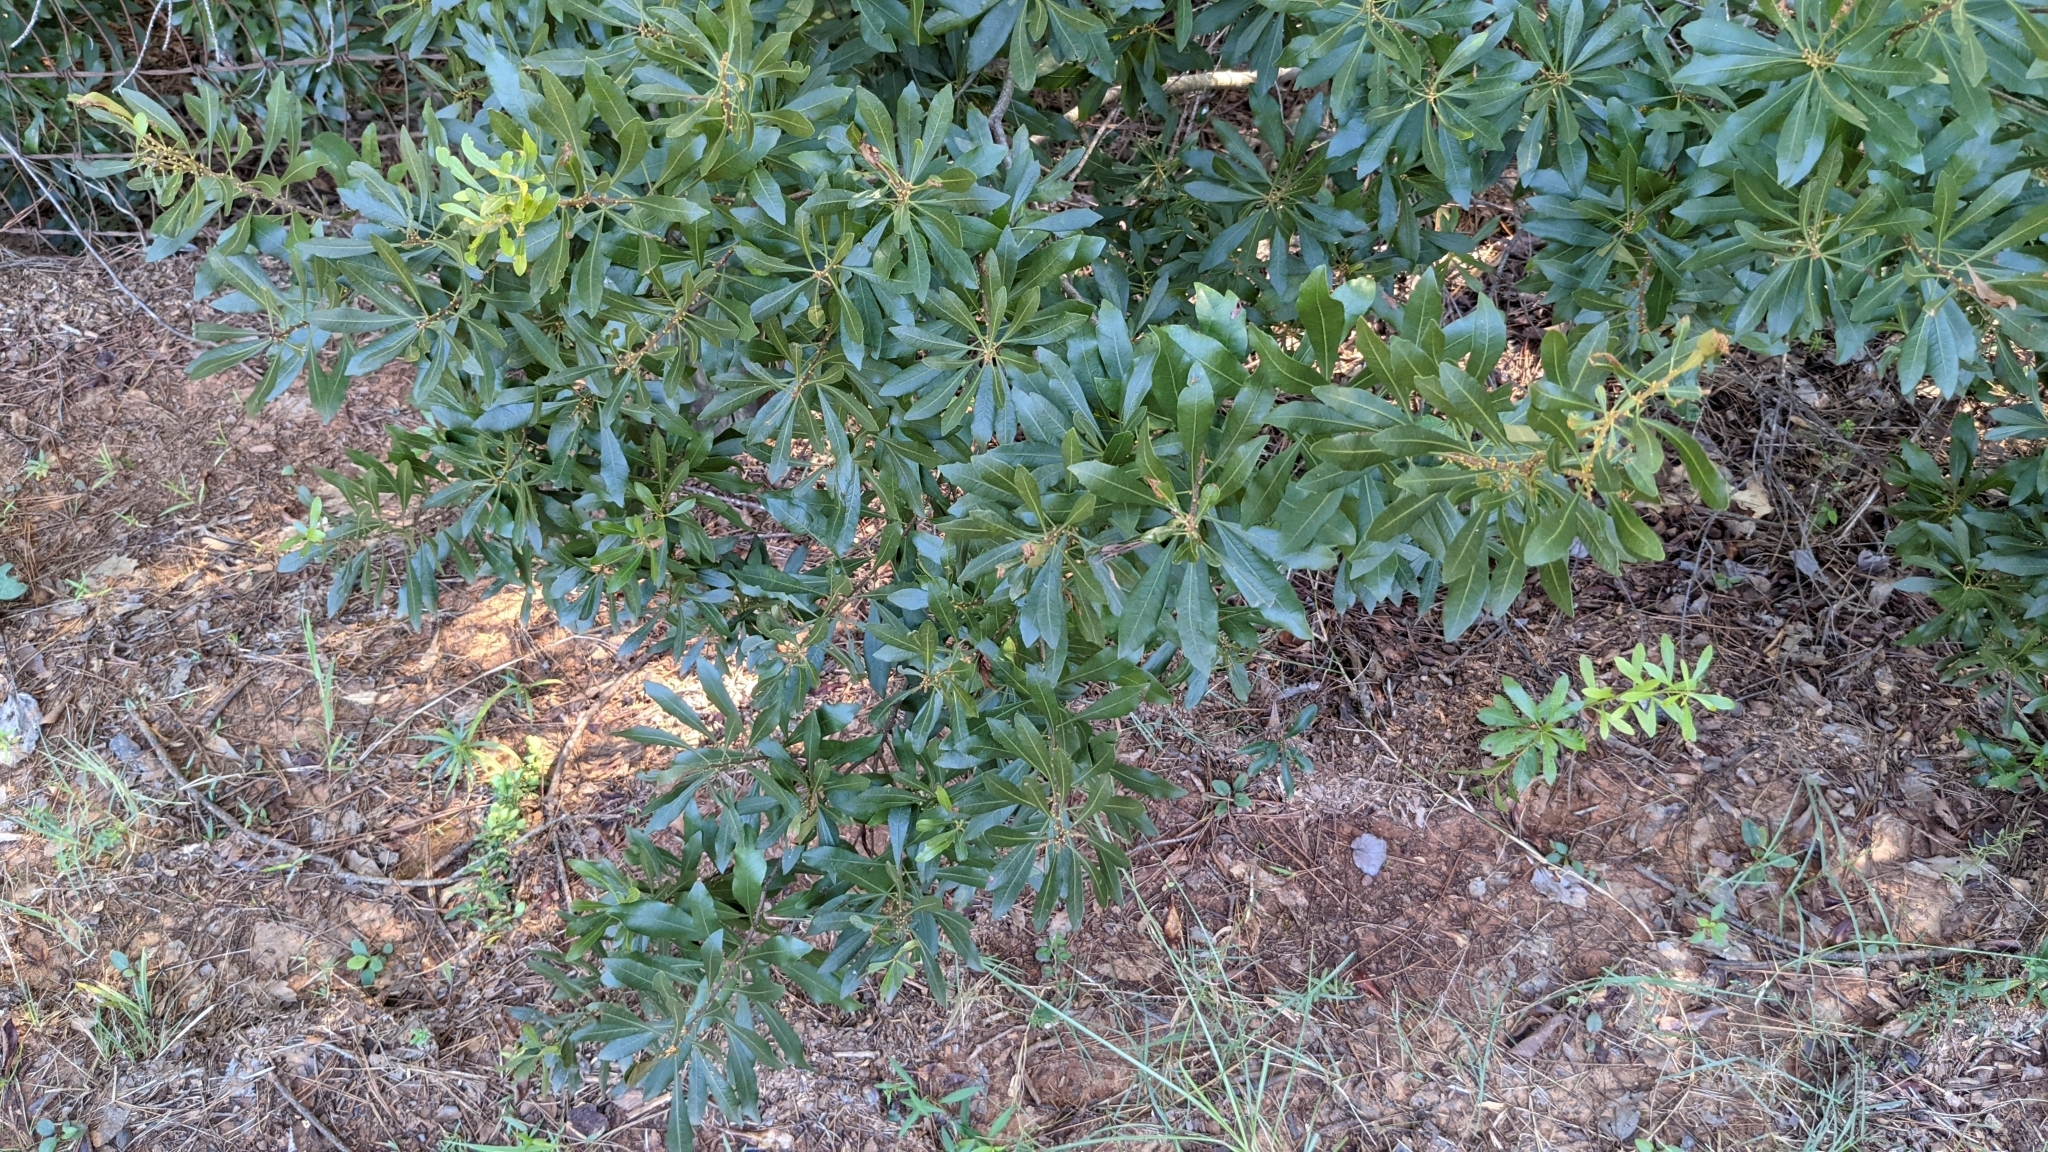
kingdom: Plantae
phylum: Tracheophyta
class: Magnoliopsida
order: Fagales
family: Myricaceae
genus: Morella
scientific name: Morella cerifera
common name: Wax myrtle
